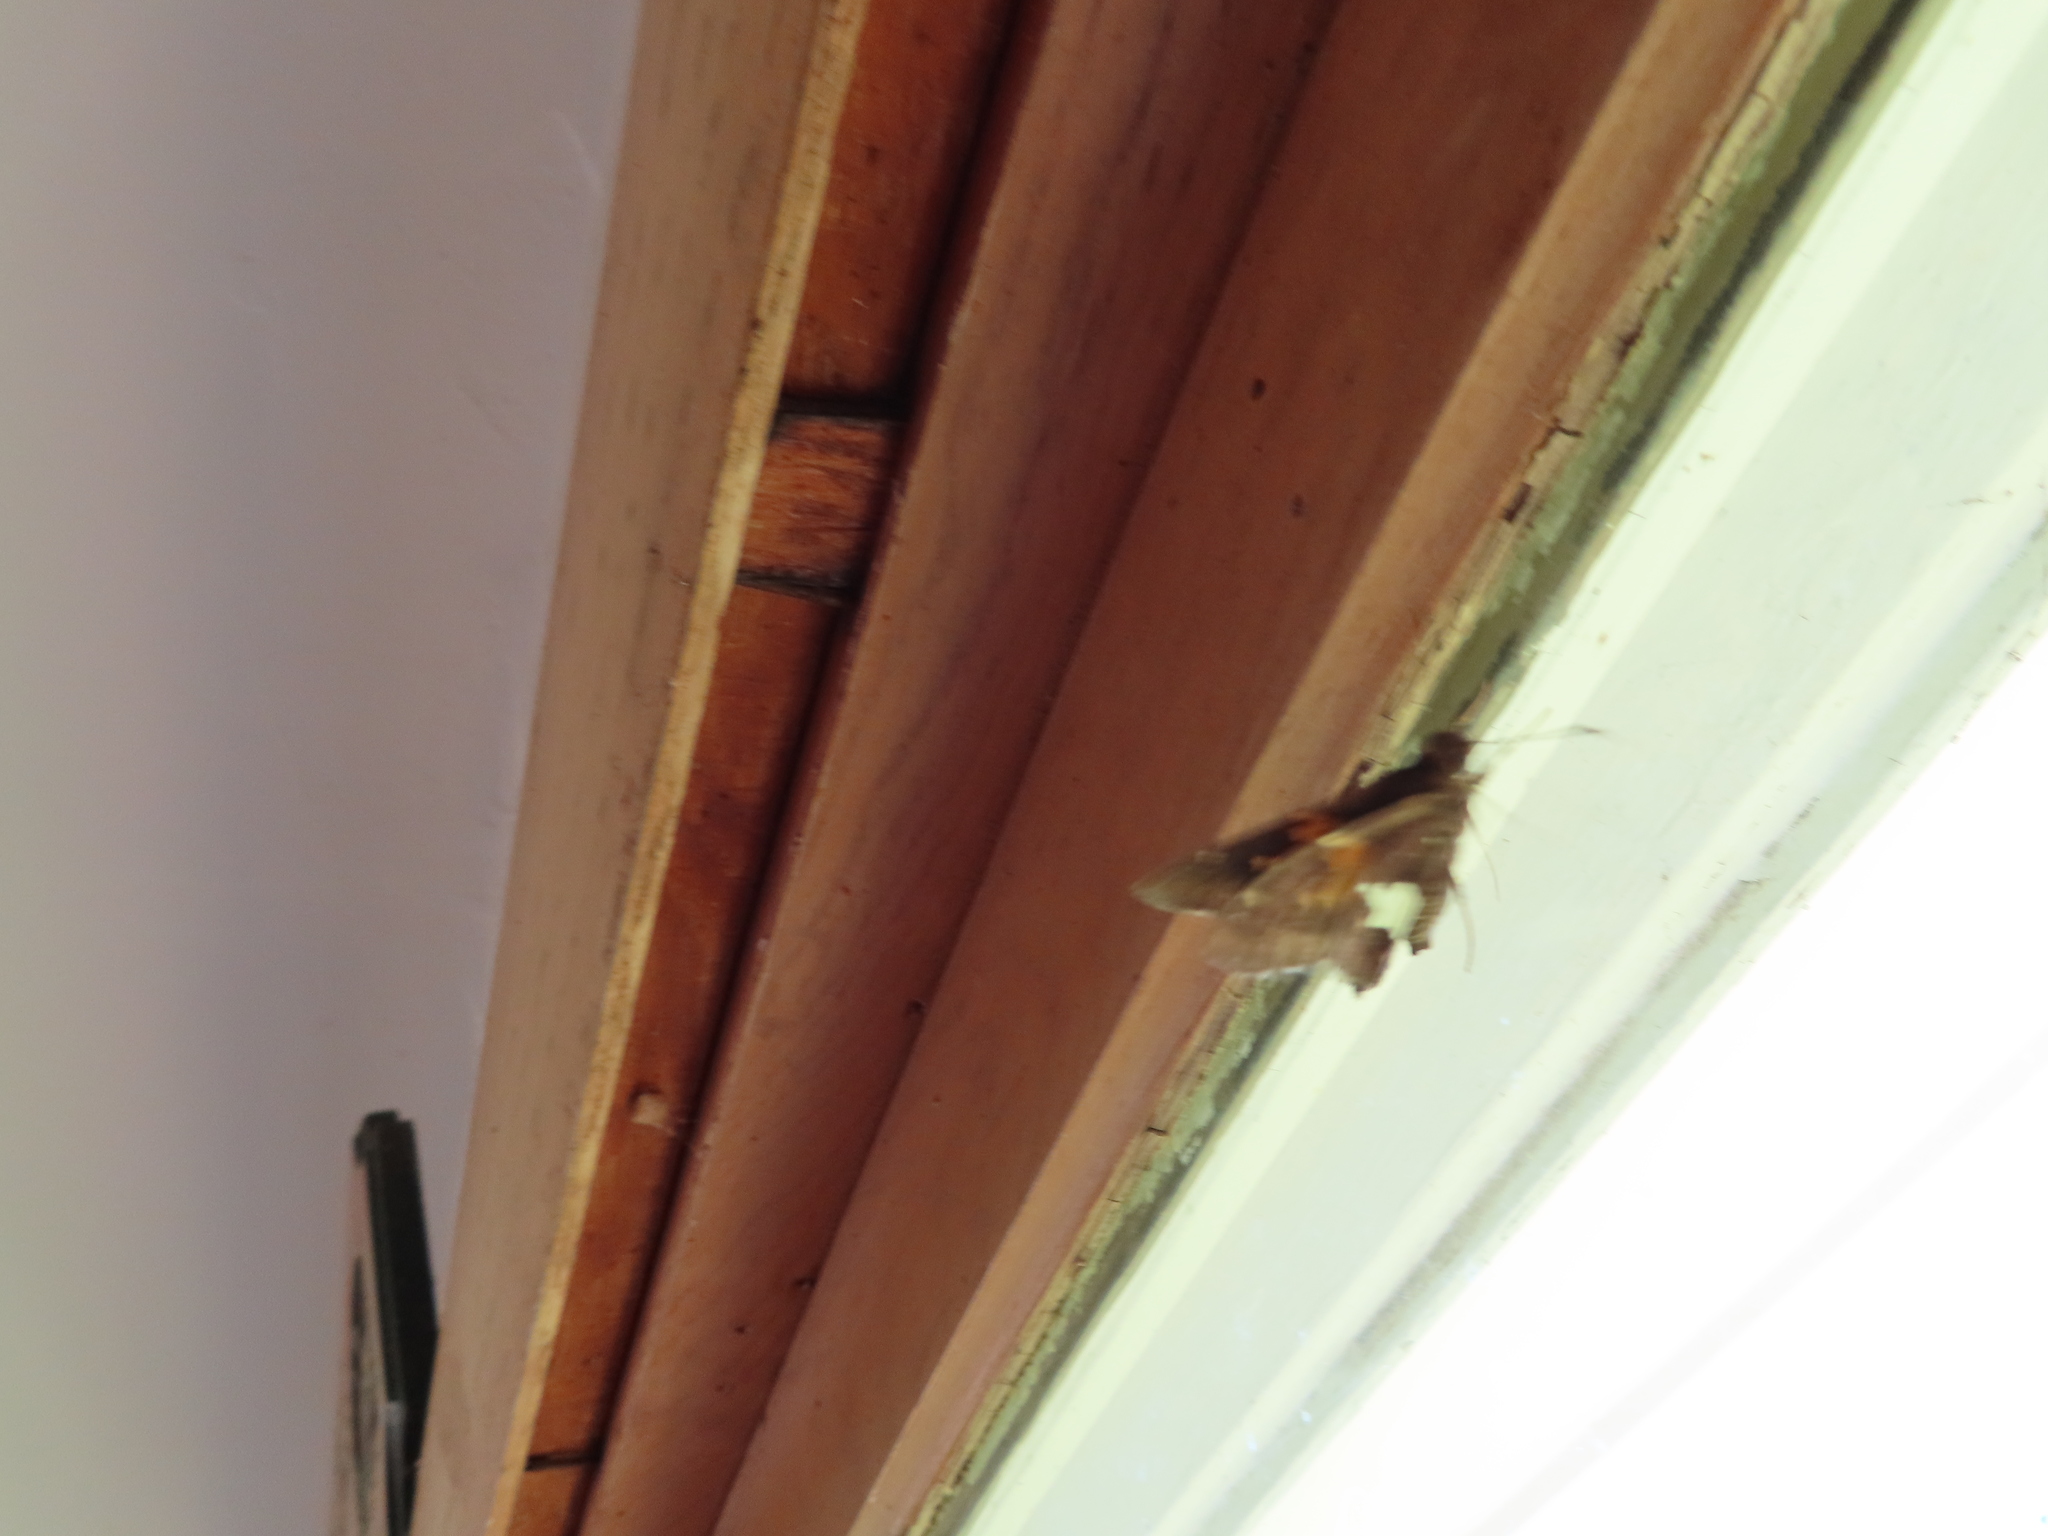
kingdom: Animalia
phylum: Arthropoda
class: Insecta
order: Lepidoptera
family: Hesperiidae
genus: Epargyreus
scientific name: Epargyreus clarus
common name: Silver-spotted skipper
